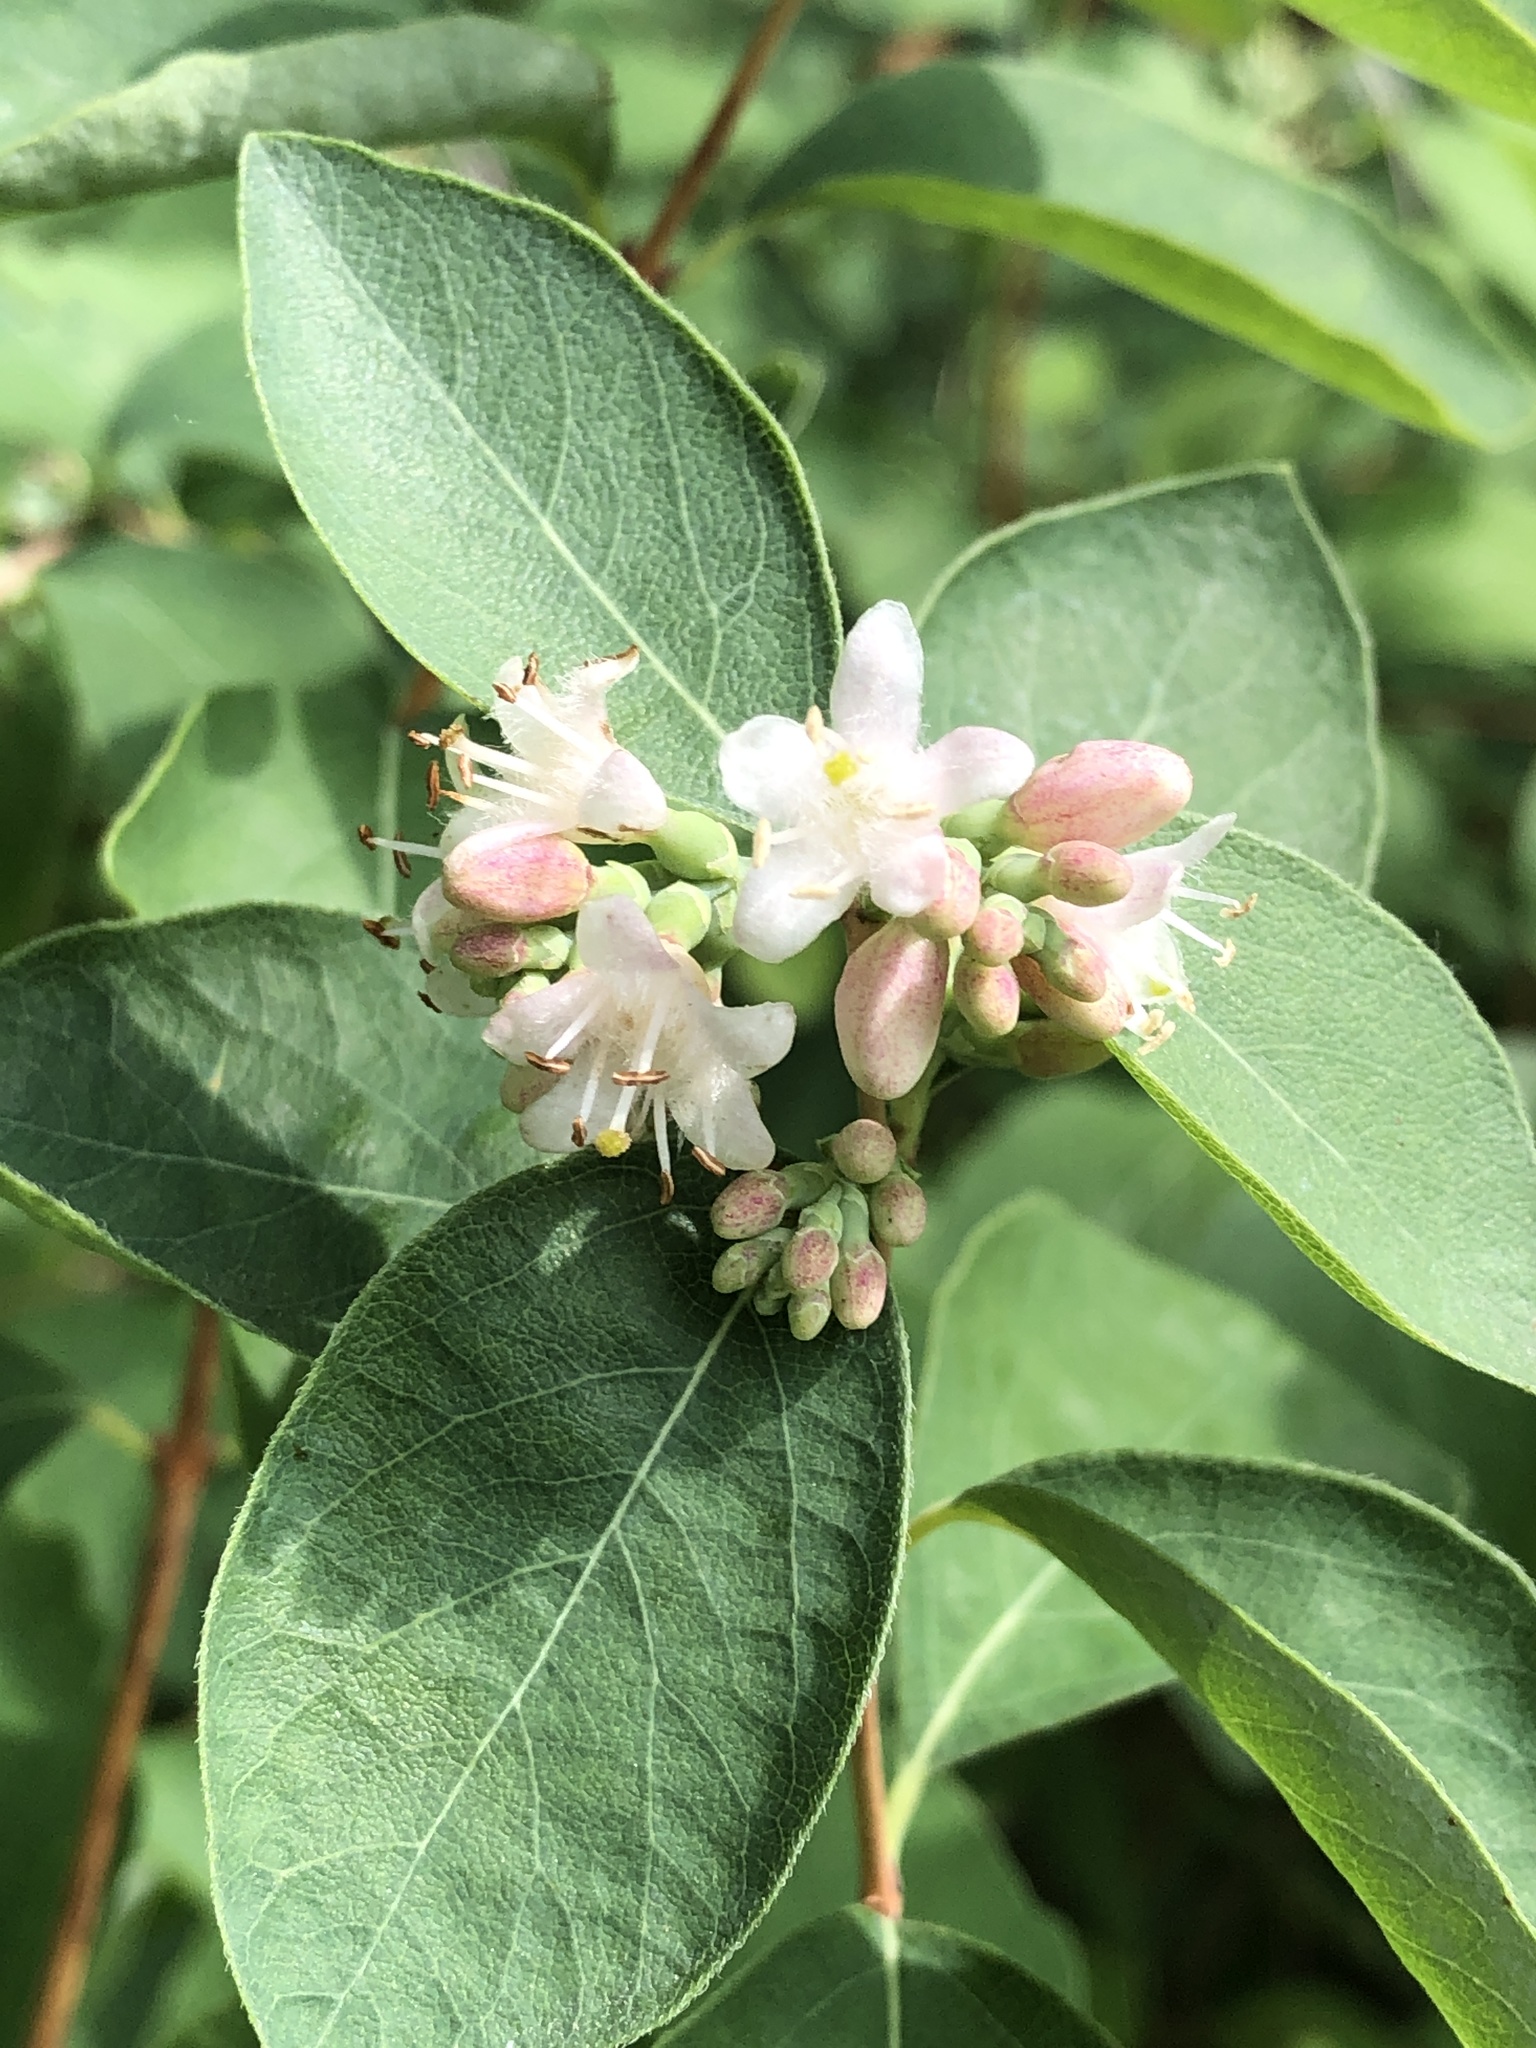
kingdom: Plantae
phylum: Tracheophyta
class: Magnoliopsida
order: Dipsacales
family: Caprifoliaceae
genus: Symphoricarpos
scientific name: Symphoricarpos occidentalis
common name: Wolfberry
